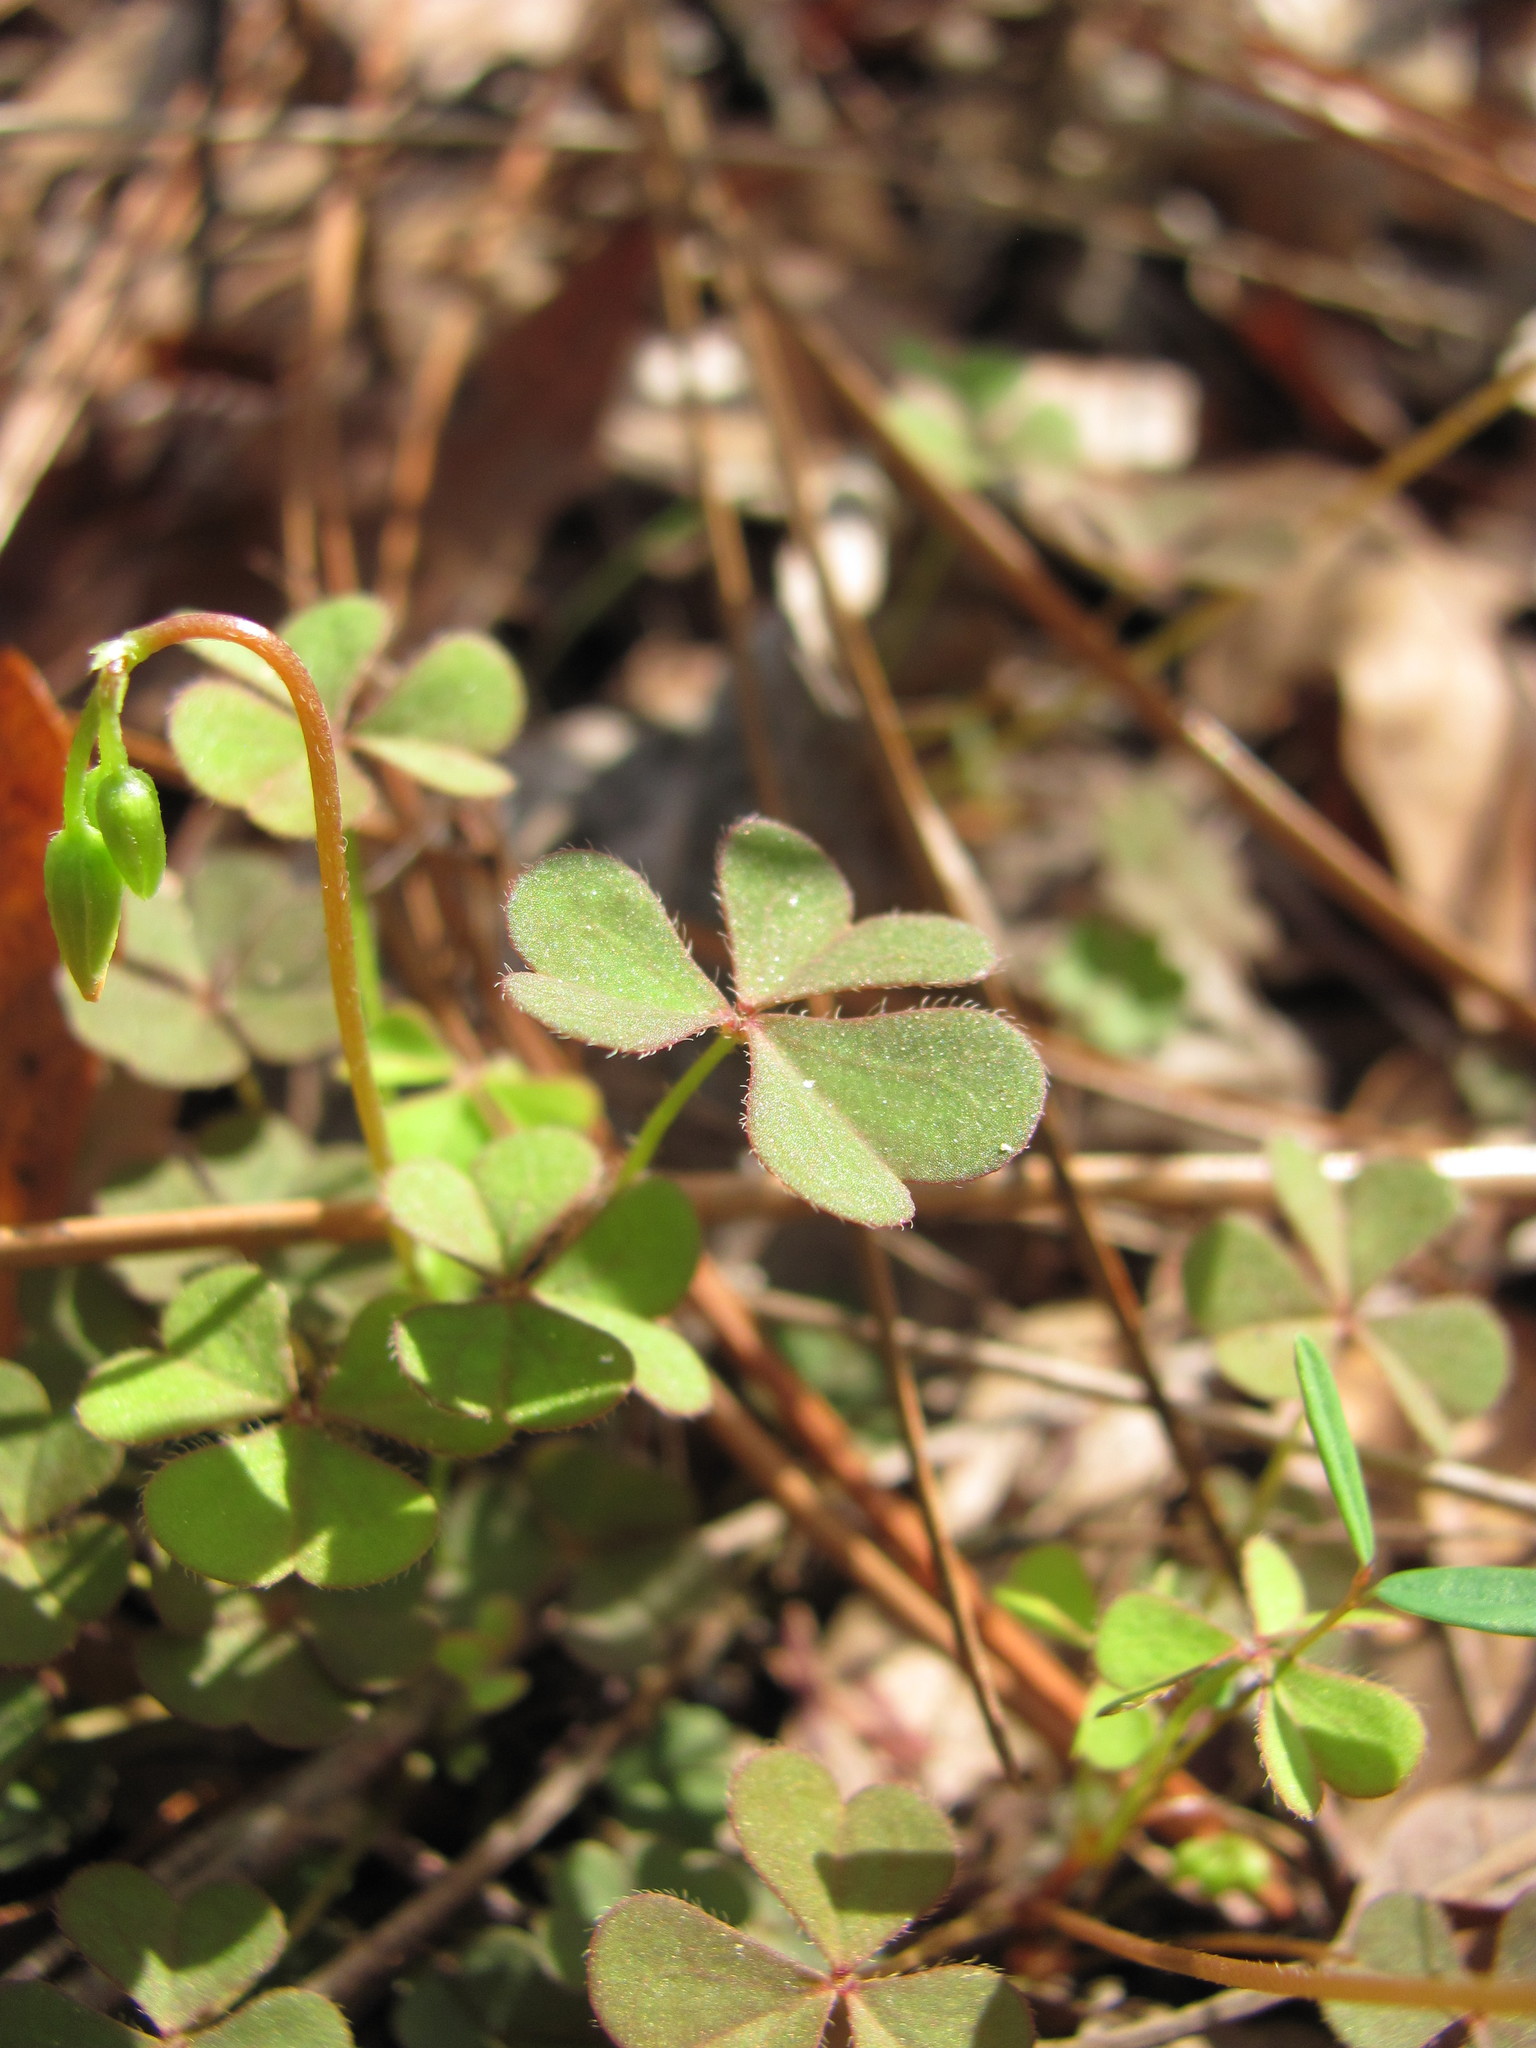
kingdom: Plantae
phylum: Tracheophyta
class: Magnoliopsida
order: Oxalidales
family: Oxalidaceae
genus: Oxalis
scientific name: Oxalis corniculata
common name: Procumbent yellow-sorrel
